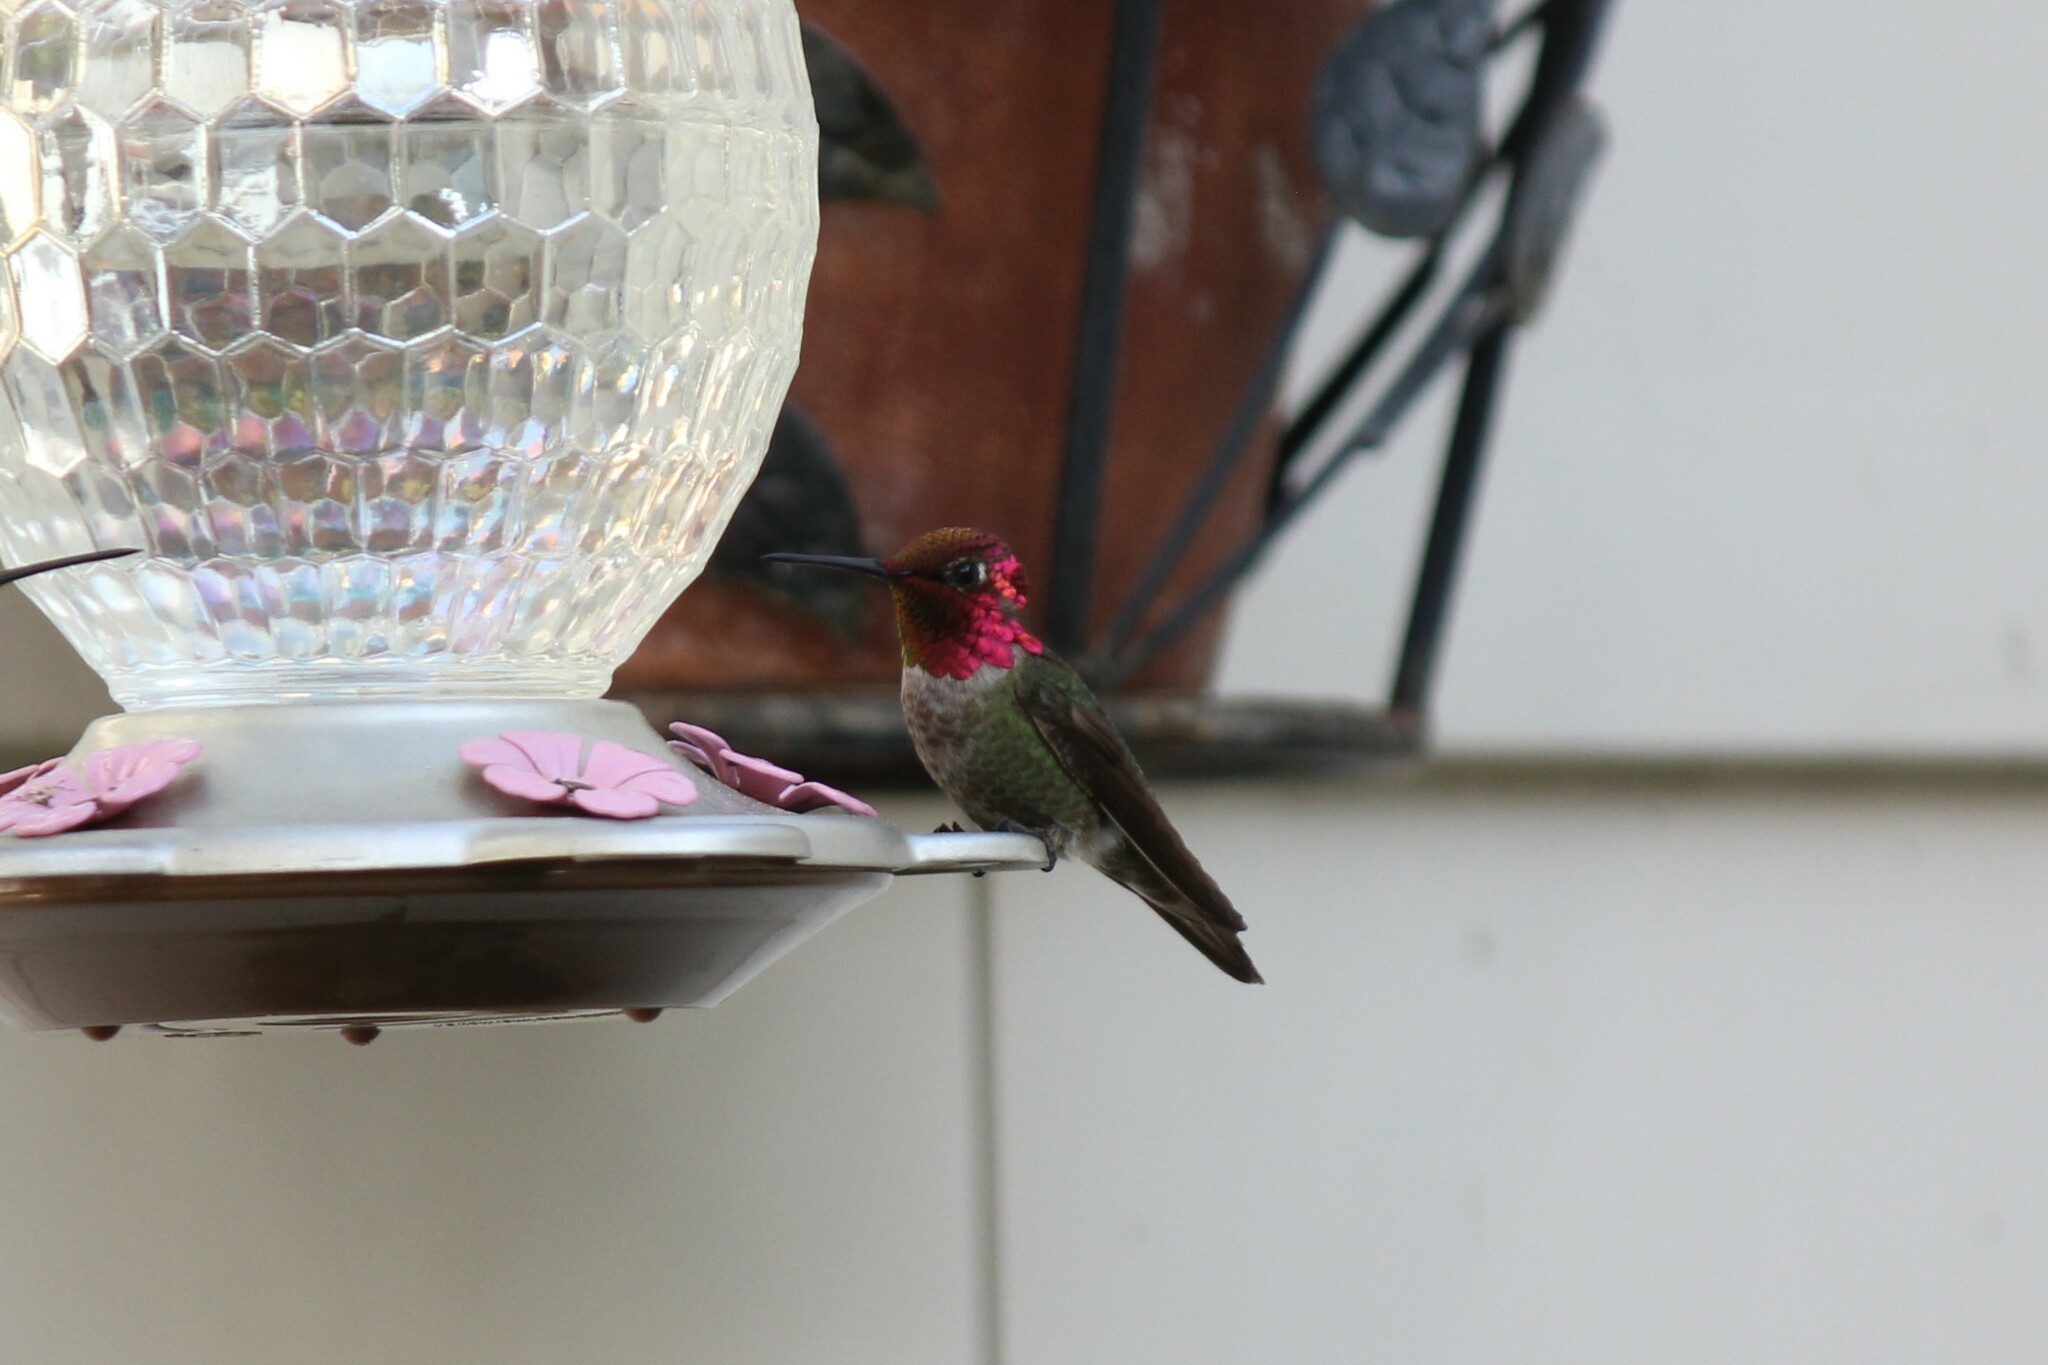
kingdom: Animalia
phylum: Chordata
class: Aves
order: Apodiformes
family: Trochilidae
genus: Calypte
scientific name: Calypte anna
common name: Anna's hummingbird
